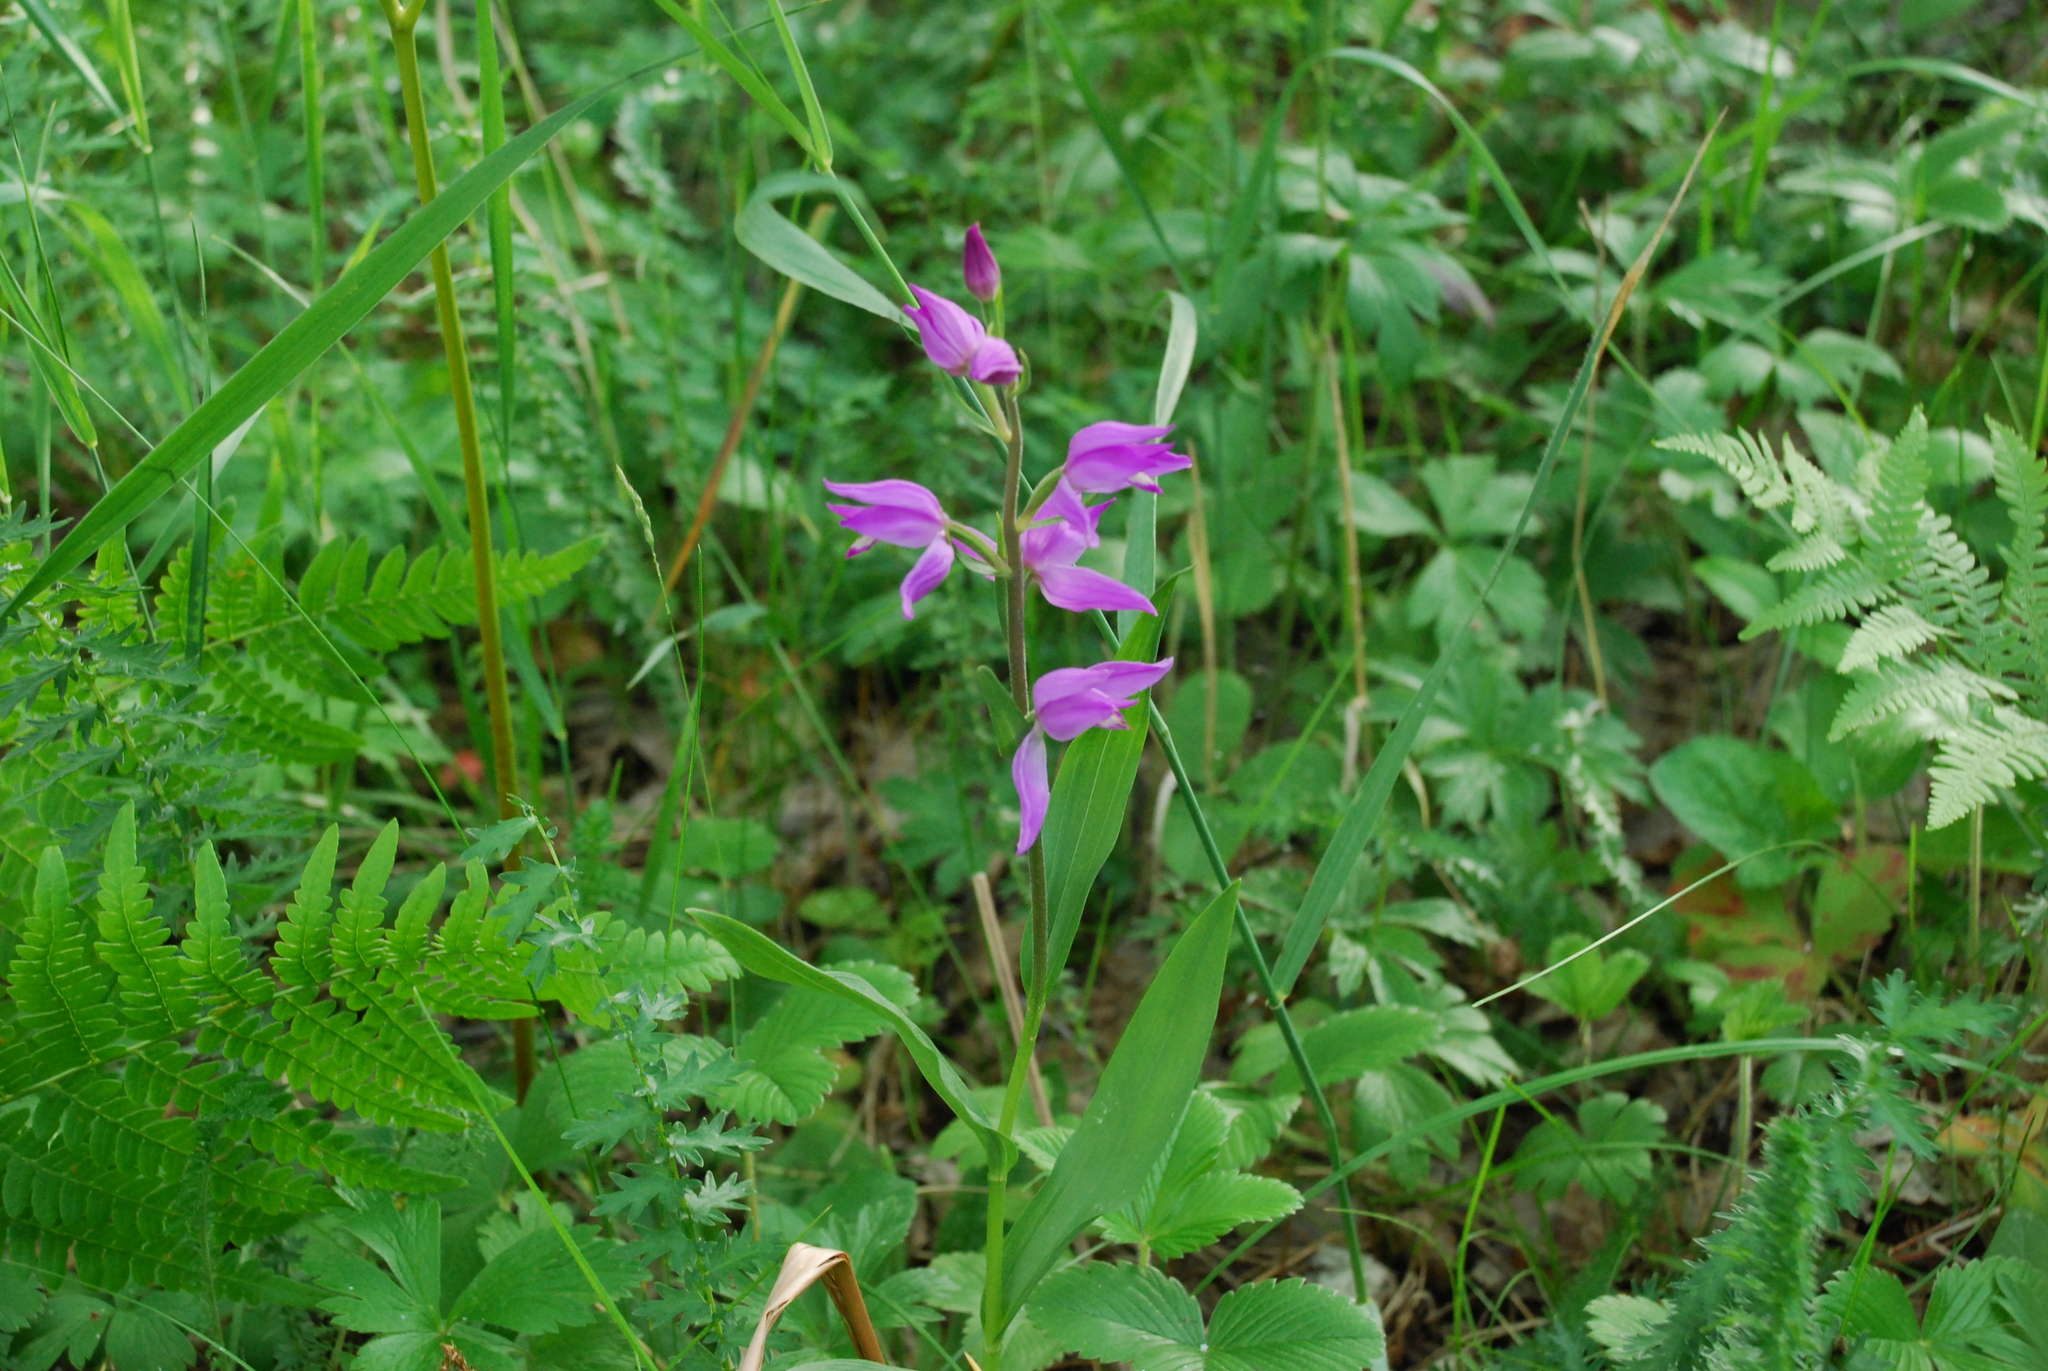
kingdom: Plantae
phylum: Tracheophyta
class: Liliopsida
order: Asparagales
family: Orchidaceae
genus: Cephalanthera
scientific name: Cephalanthera rubra
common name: Red helleborine
